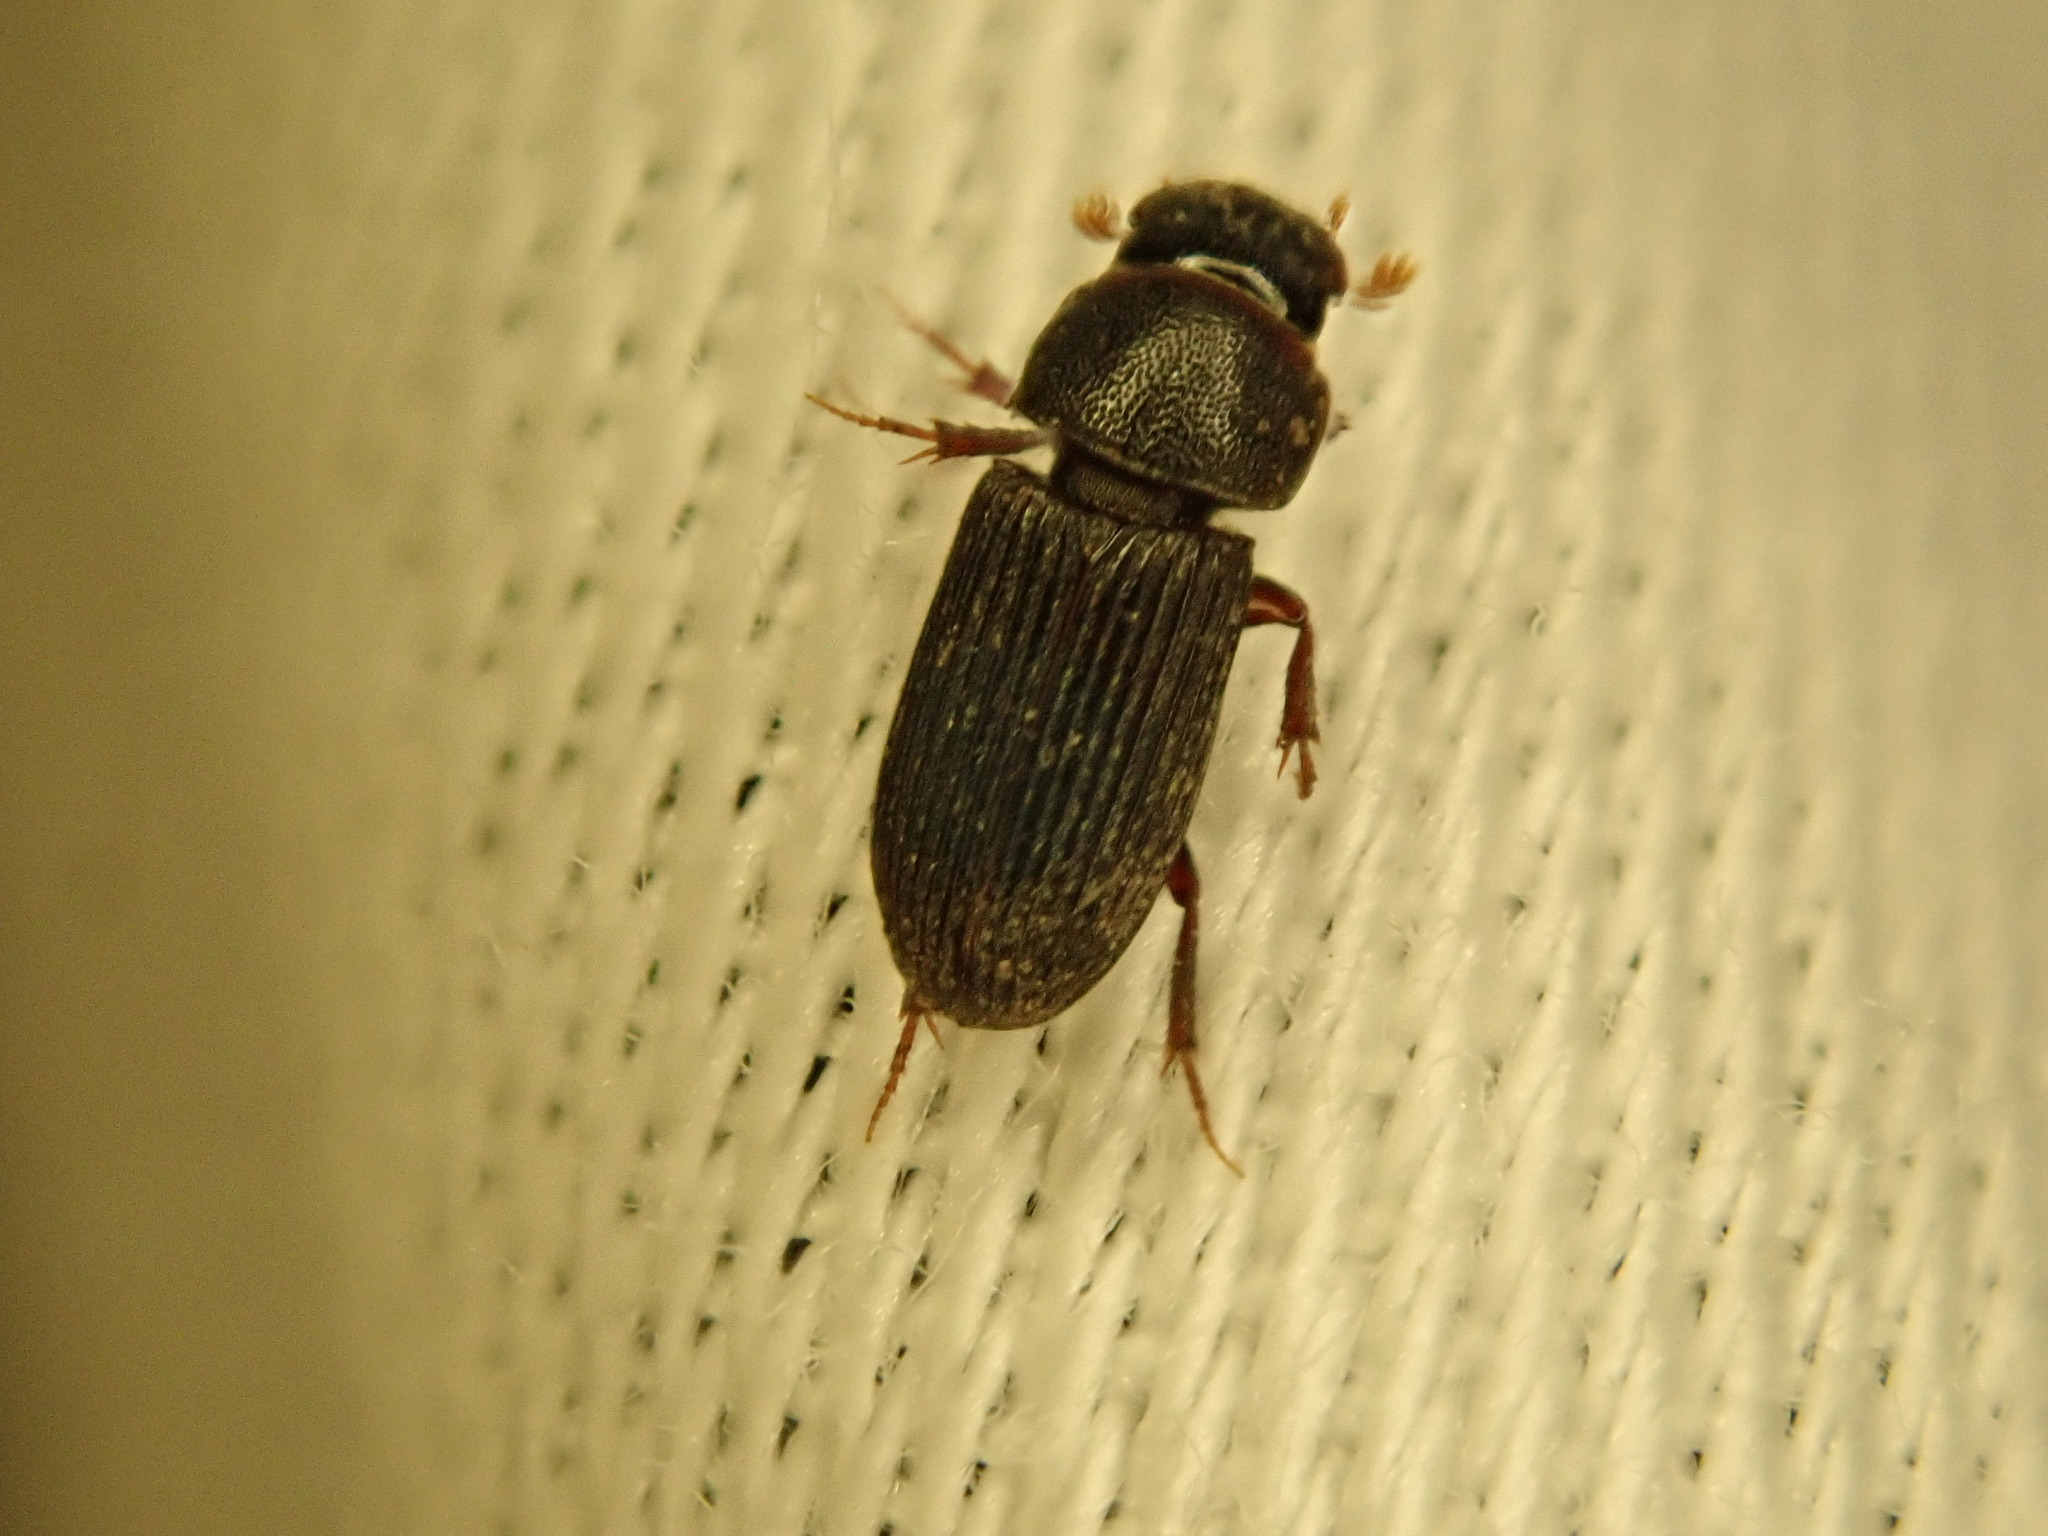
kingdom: Animalia
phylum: Arthropoda
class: Insecta
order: Coleoptera
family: Scarabaeidae
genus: Ataenius
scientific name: Ataenius gracilis
